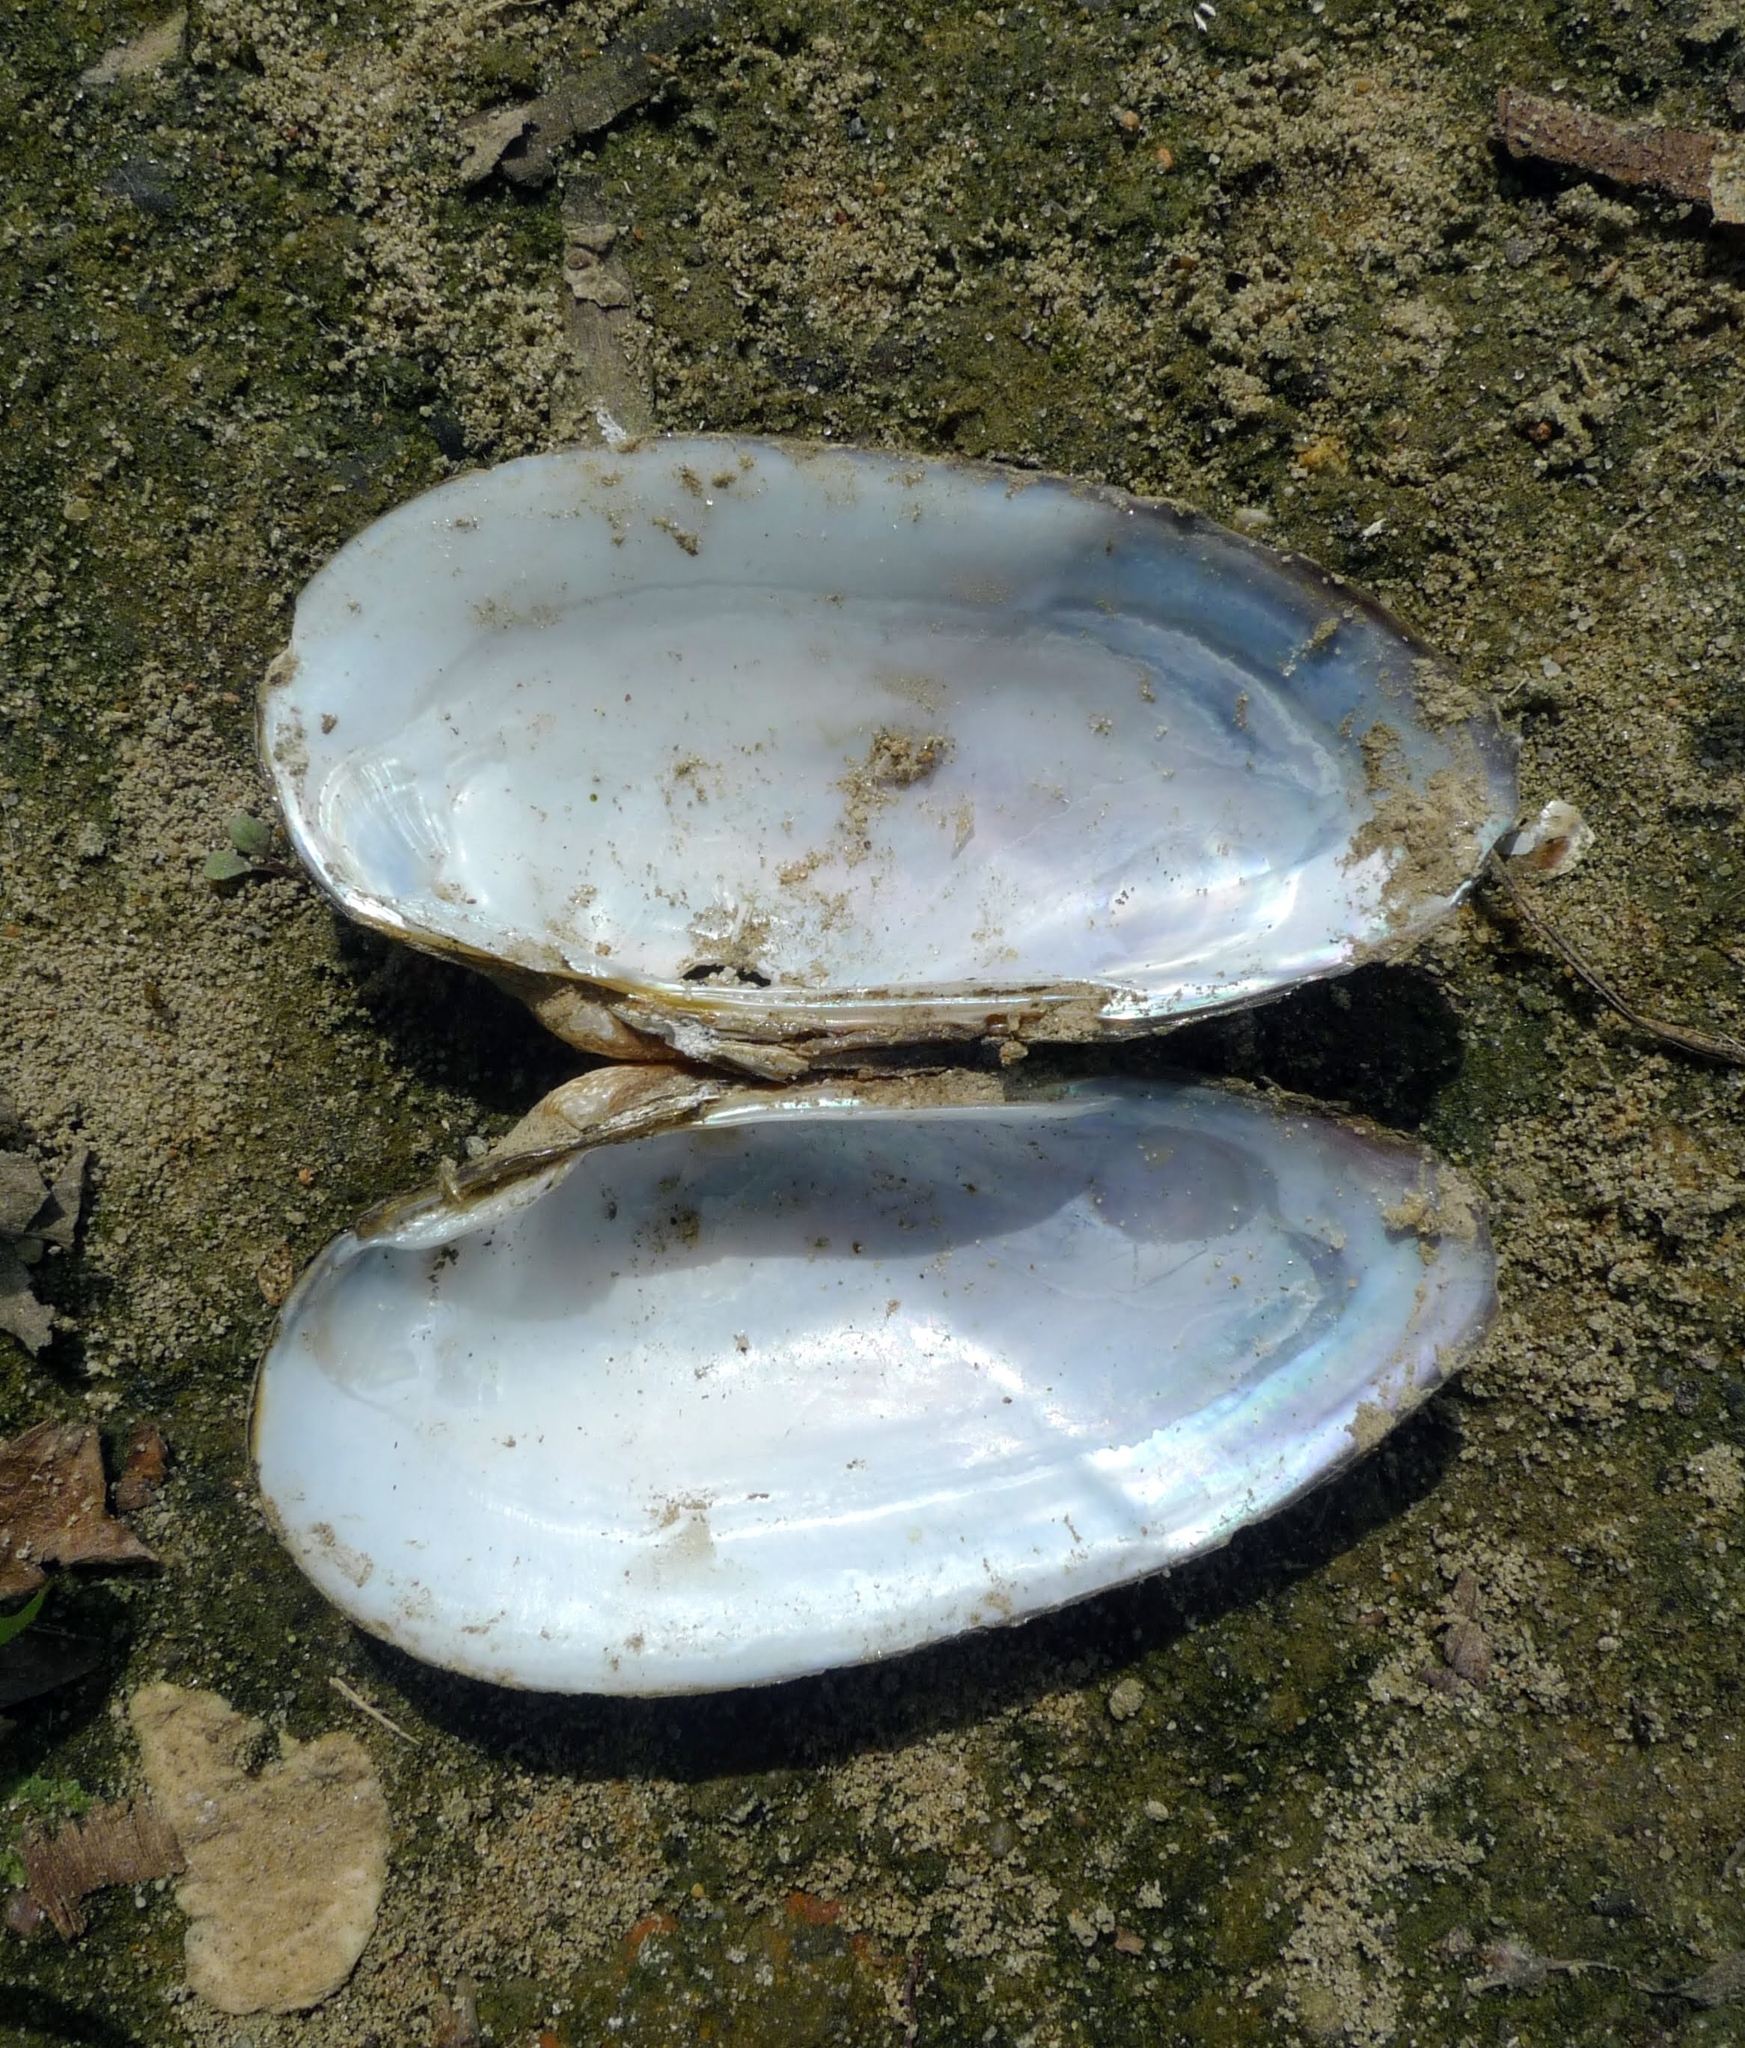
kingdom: Animalia
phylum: Mollusca
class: Bivalvia
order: Unionida
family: Unionidae
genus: Unio
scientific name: Unio tumidus
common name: Swollen river mussel
